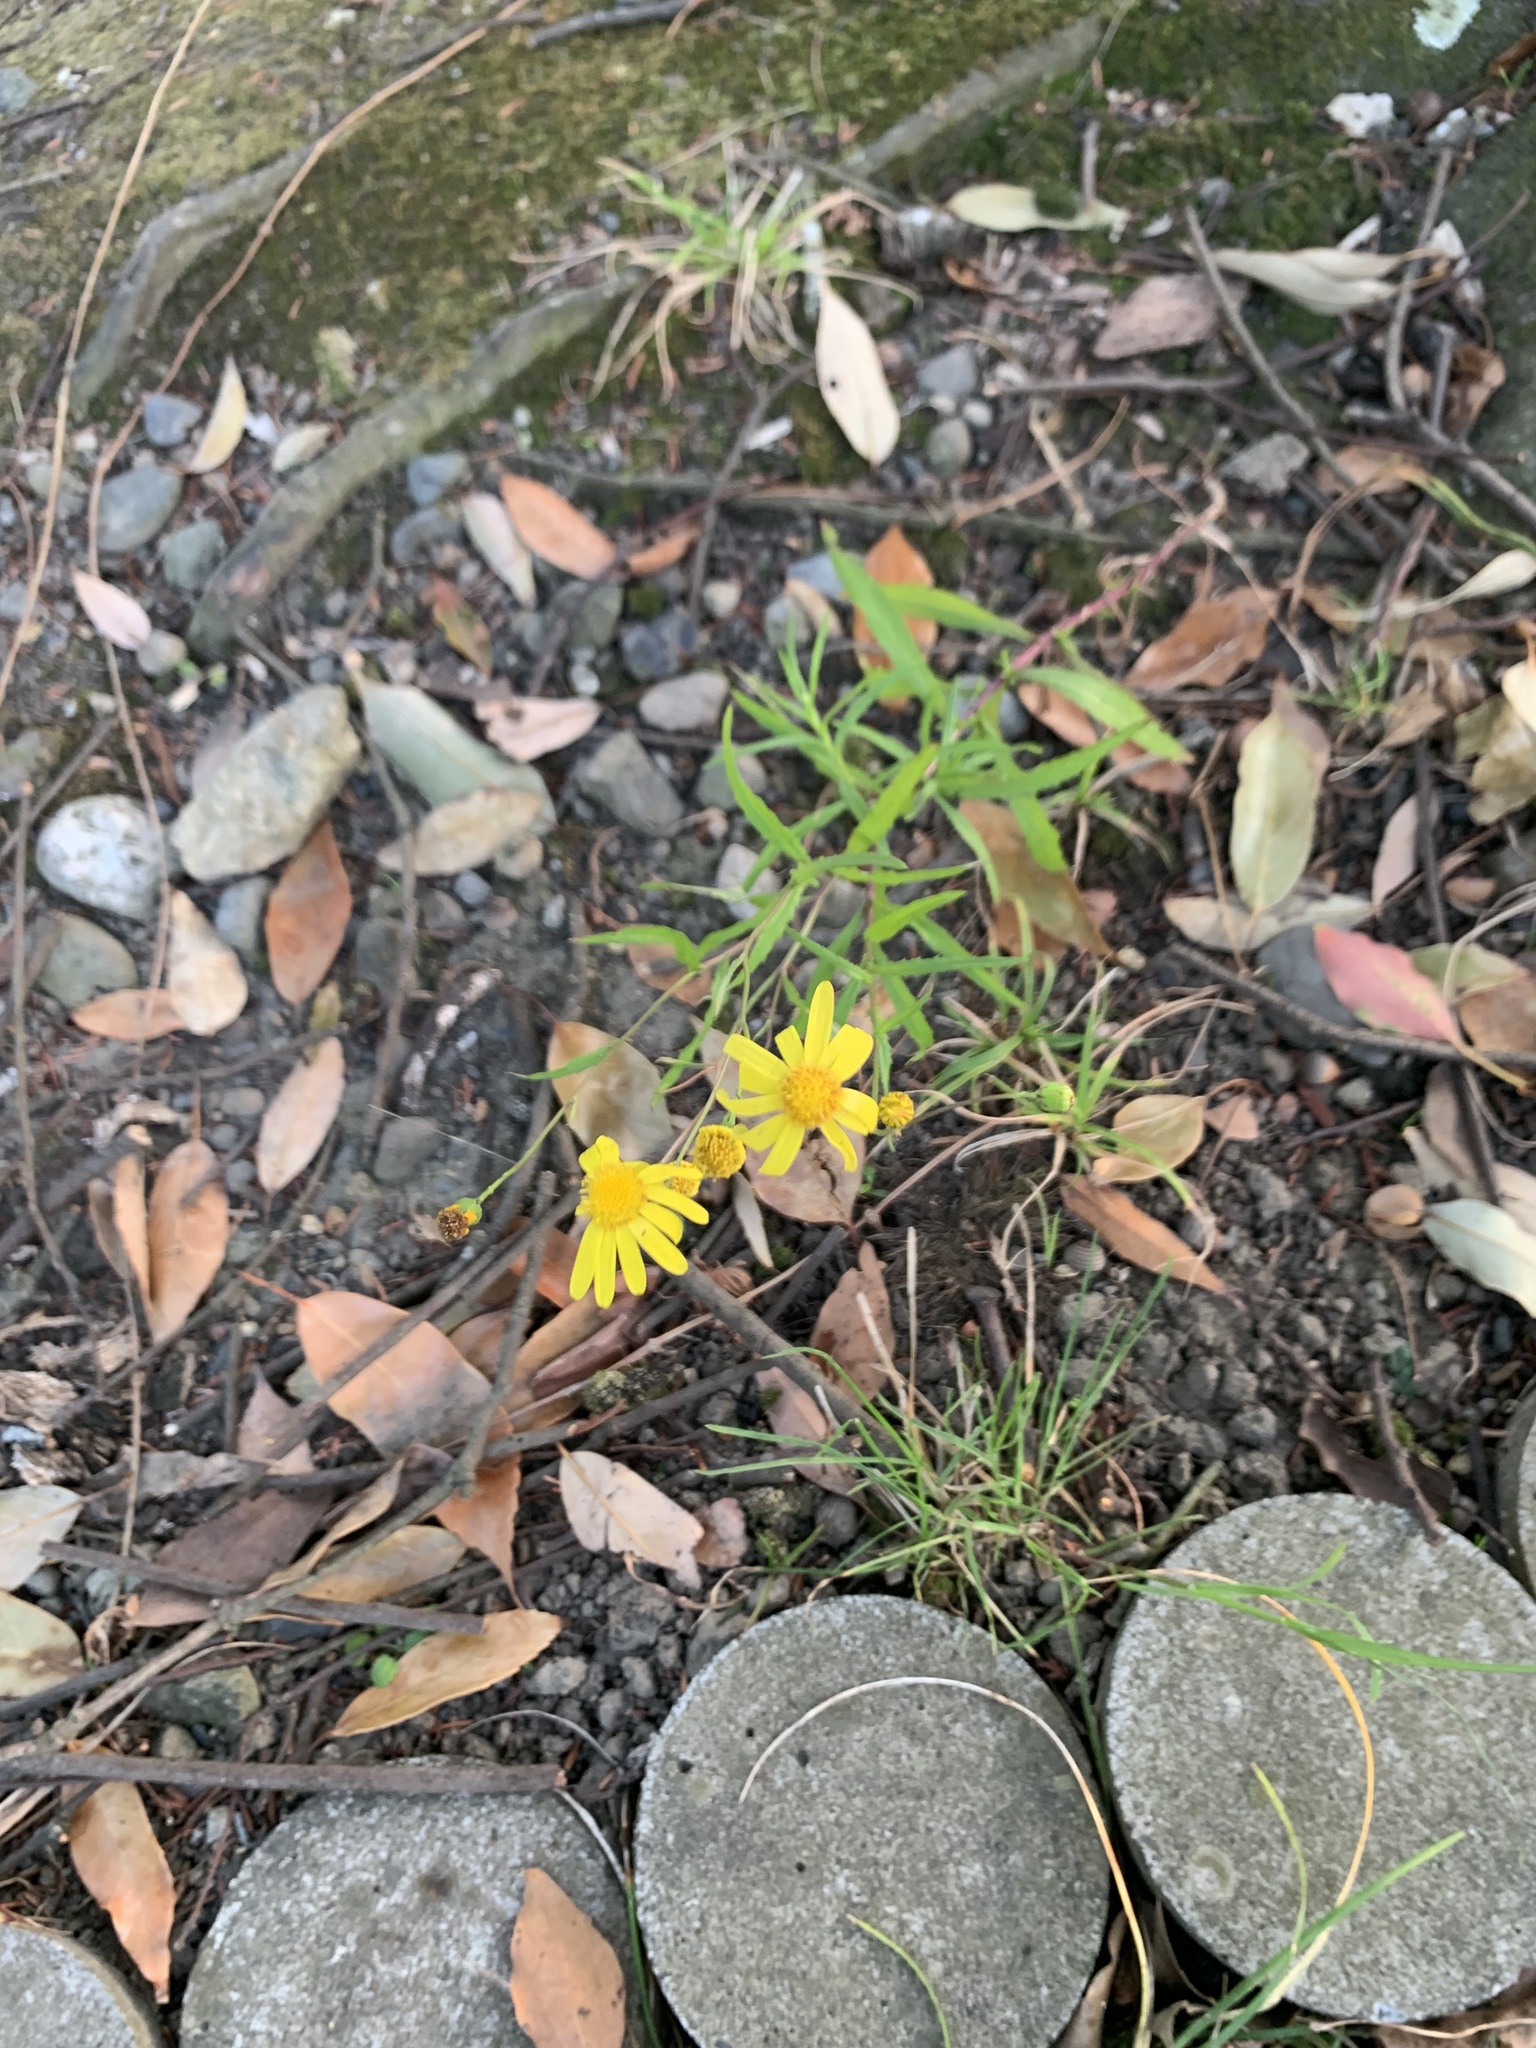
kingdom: Plantae
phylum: Tracheophyta
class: Magnoliopsida
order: Asterales
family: Asteraceae
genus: Senecio
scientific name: Senecio madagascariensis
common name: Madagascar ragwort
